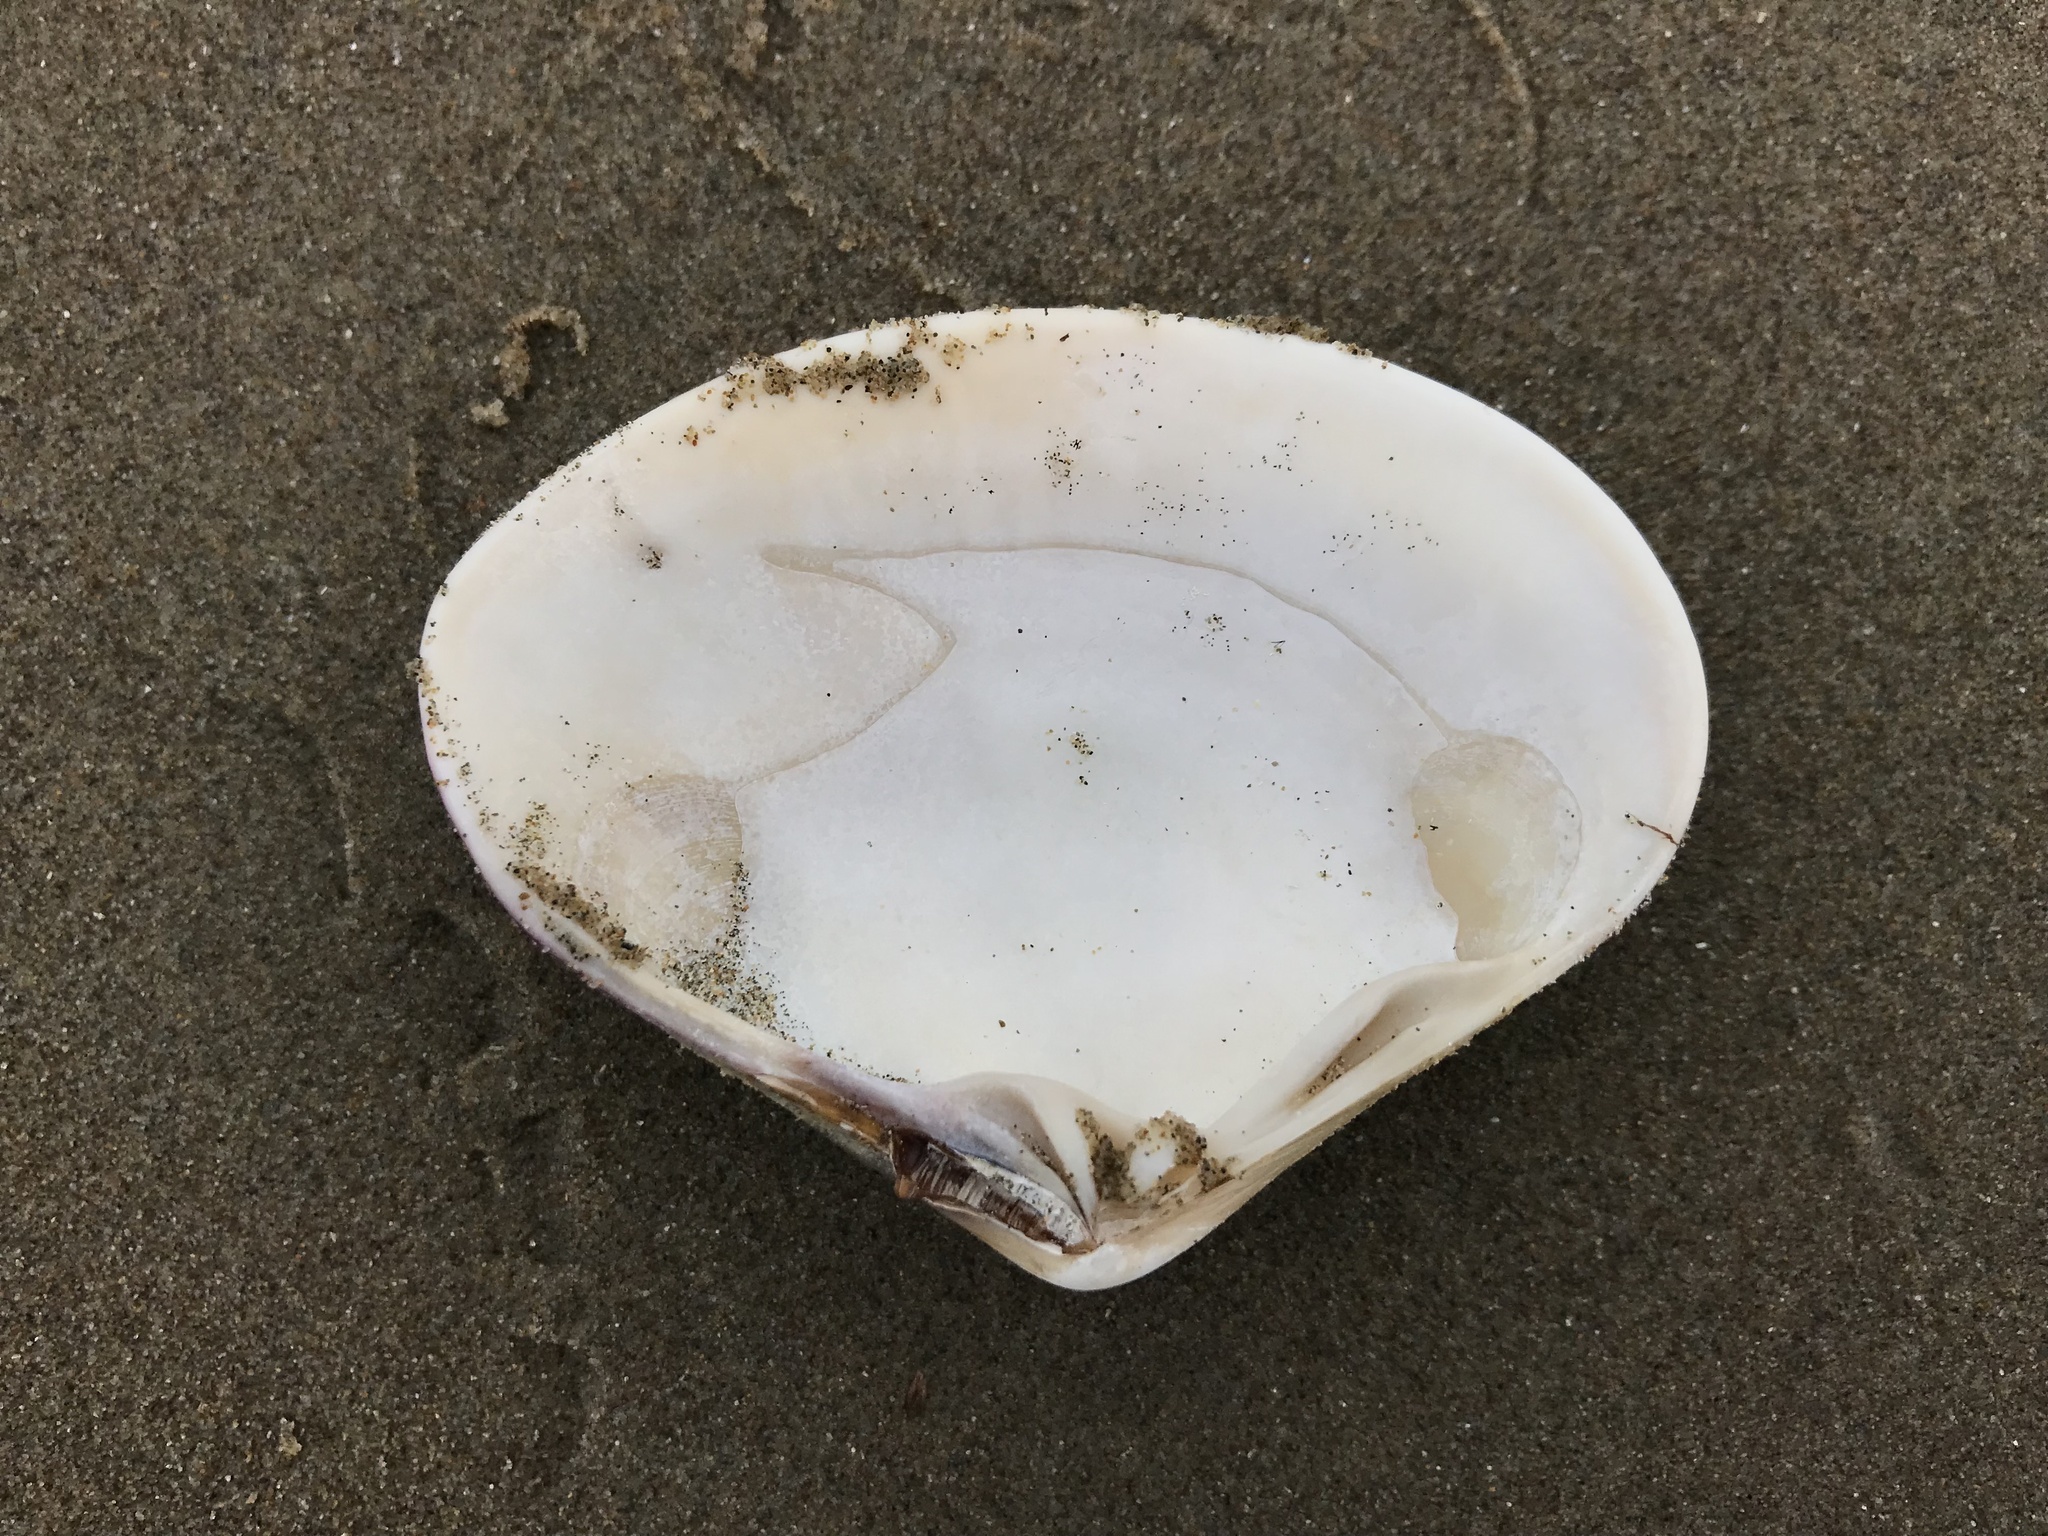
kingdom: Animalia
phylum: Mollusca
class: Bivalvia
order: Venerida
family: Veneridae
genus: Tivela
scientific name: Tivela stultorum
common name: Pismo clam
